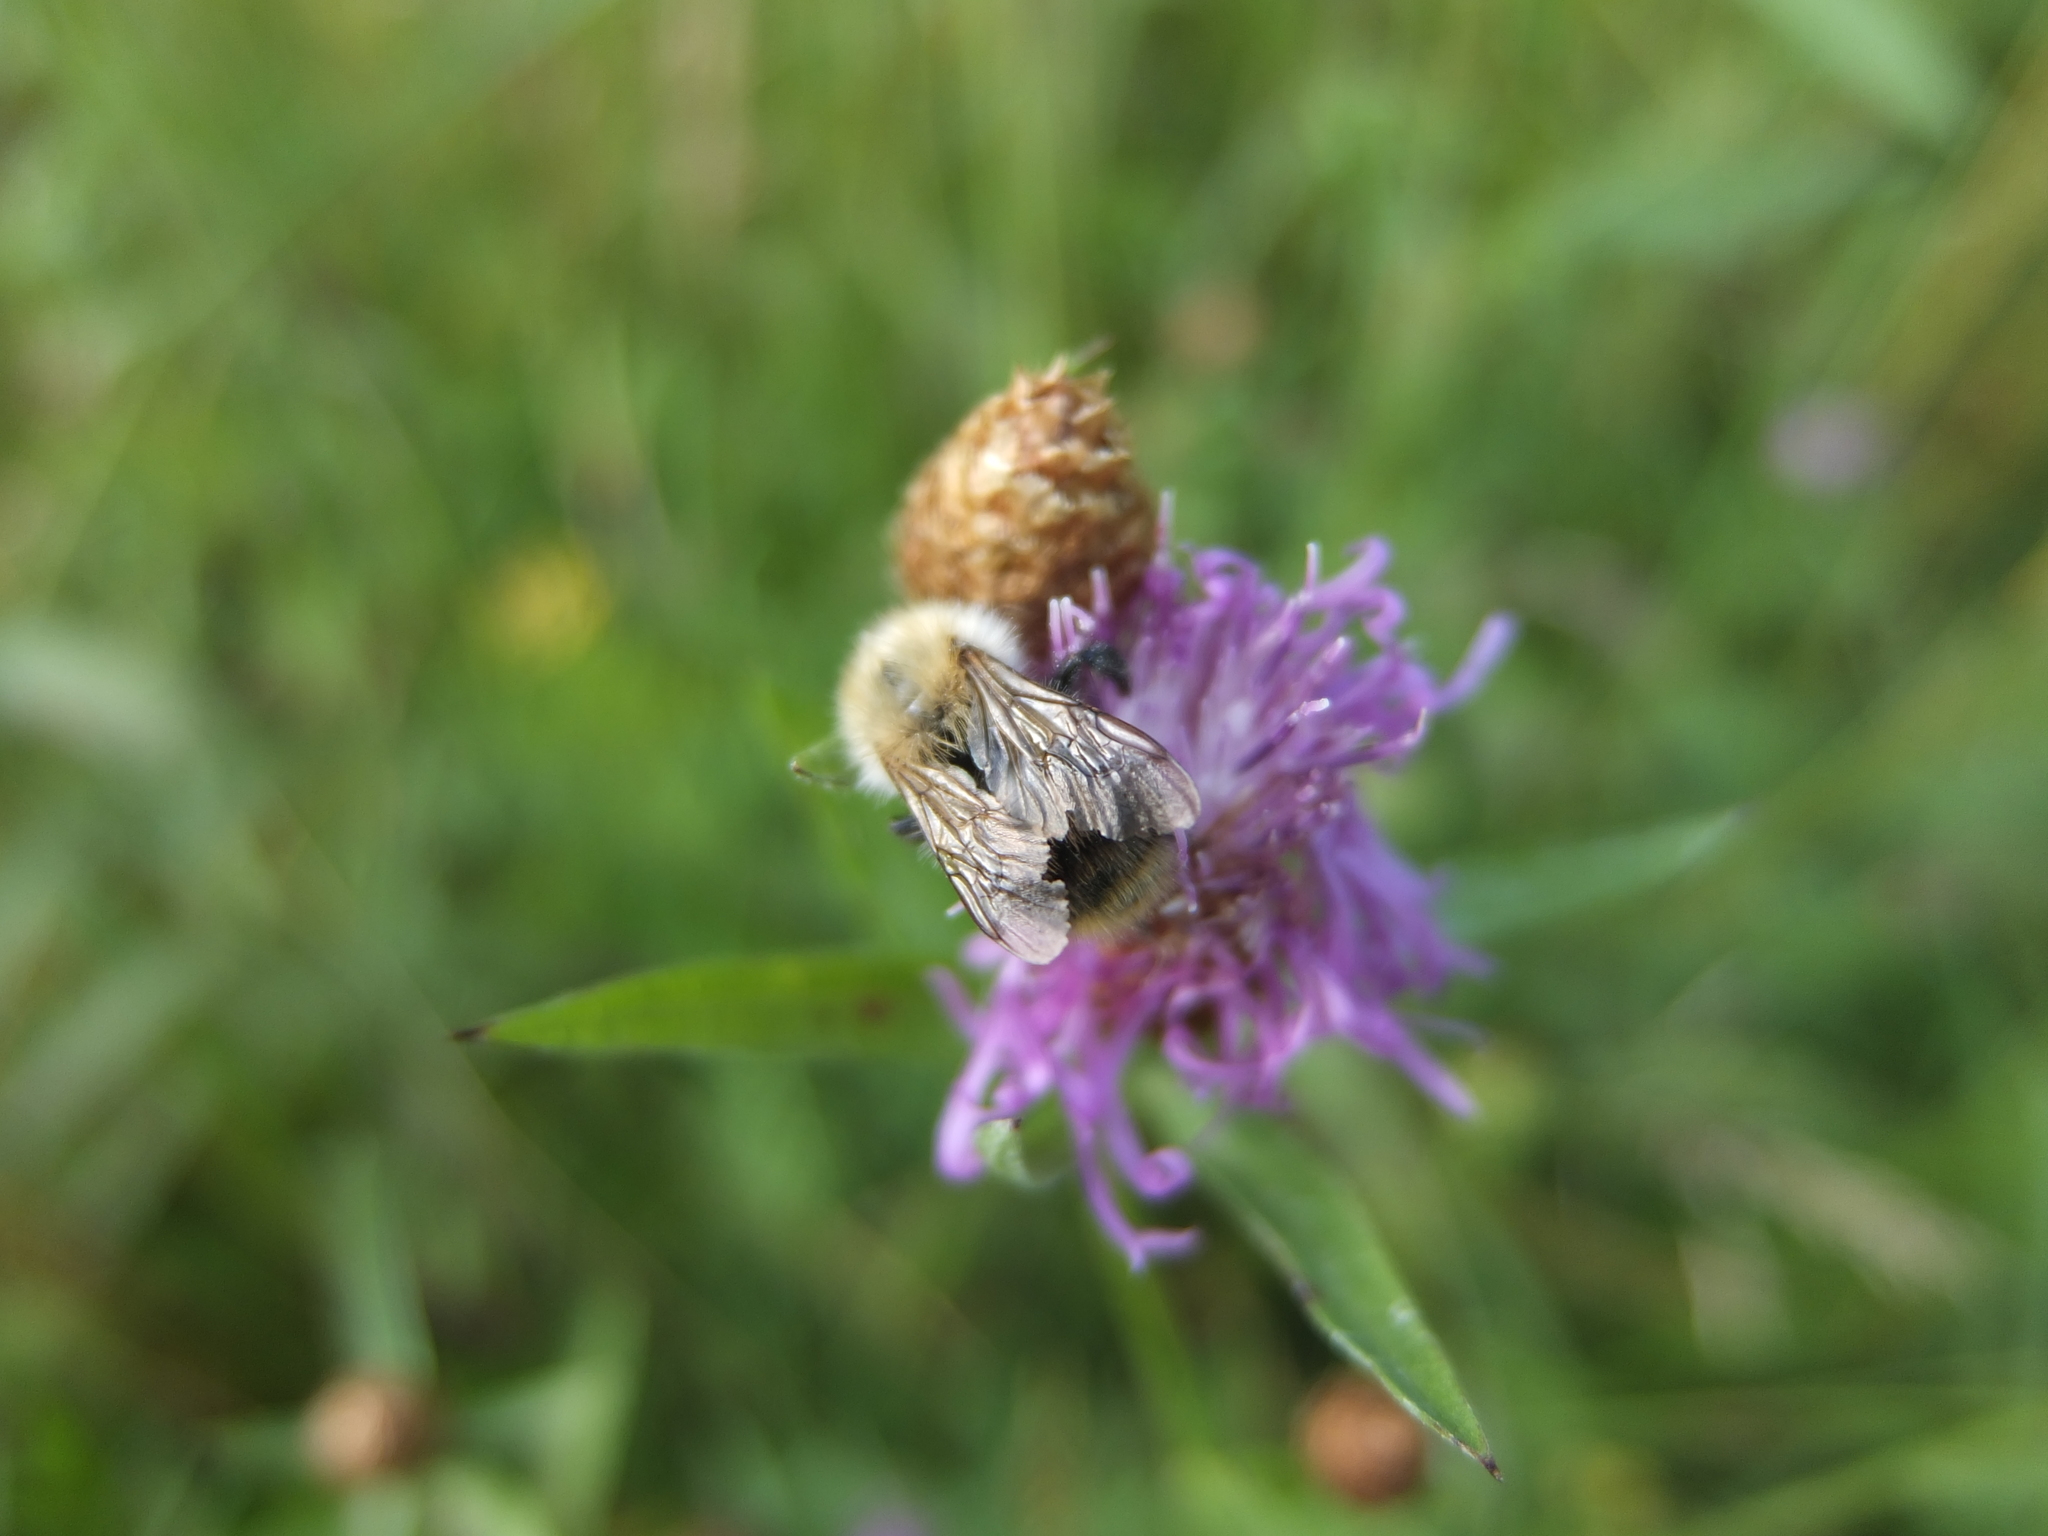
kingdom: Animalia
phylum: Arthropoda
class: Insecta
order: Hymenoptera
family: Apidae
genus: Bombus
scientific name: Bombus pascuorum
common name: Common carder bee
